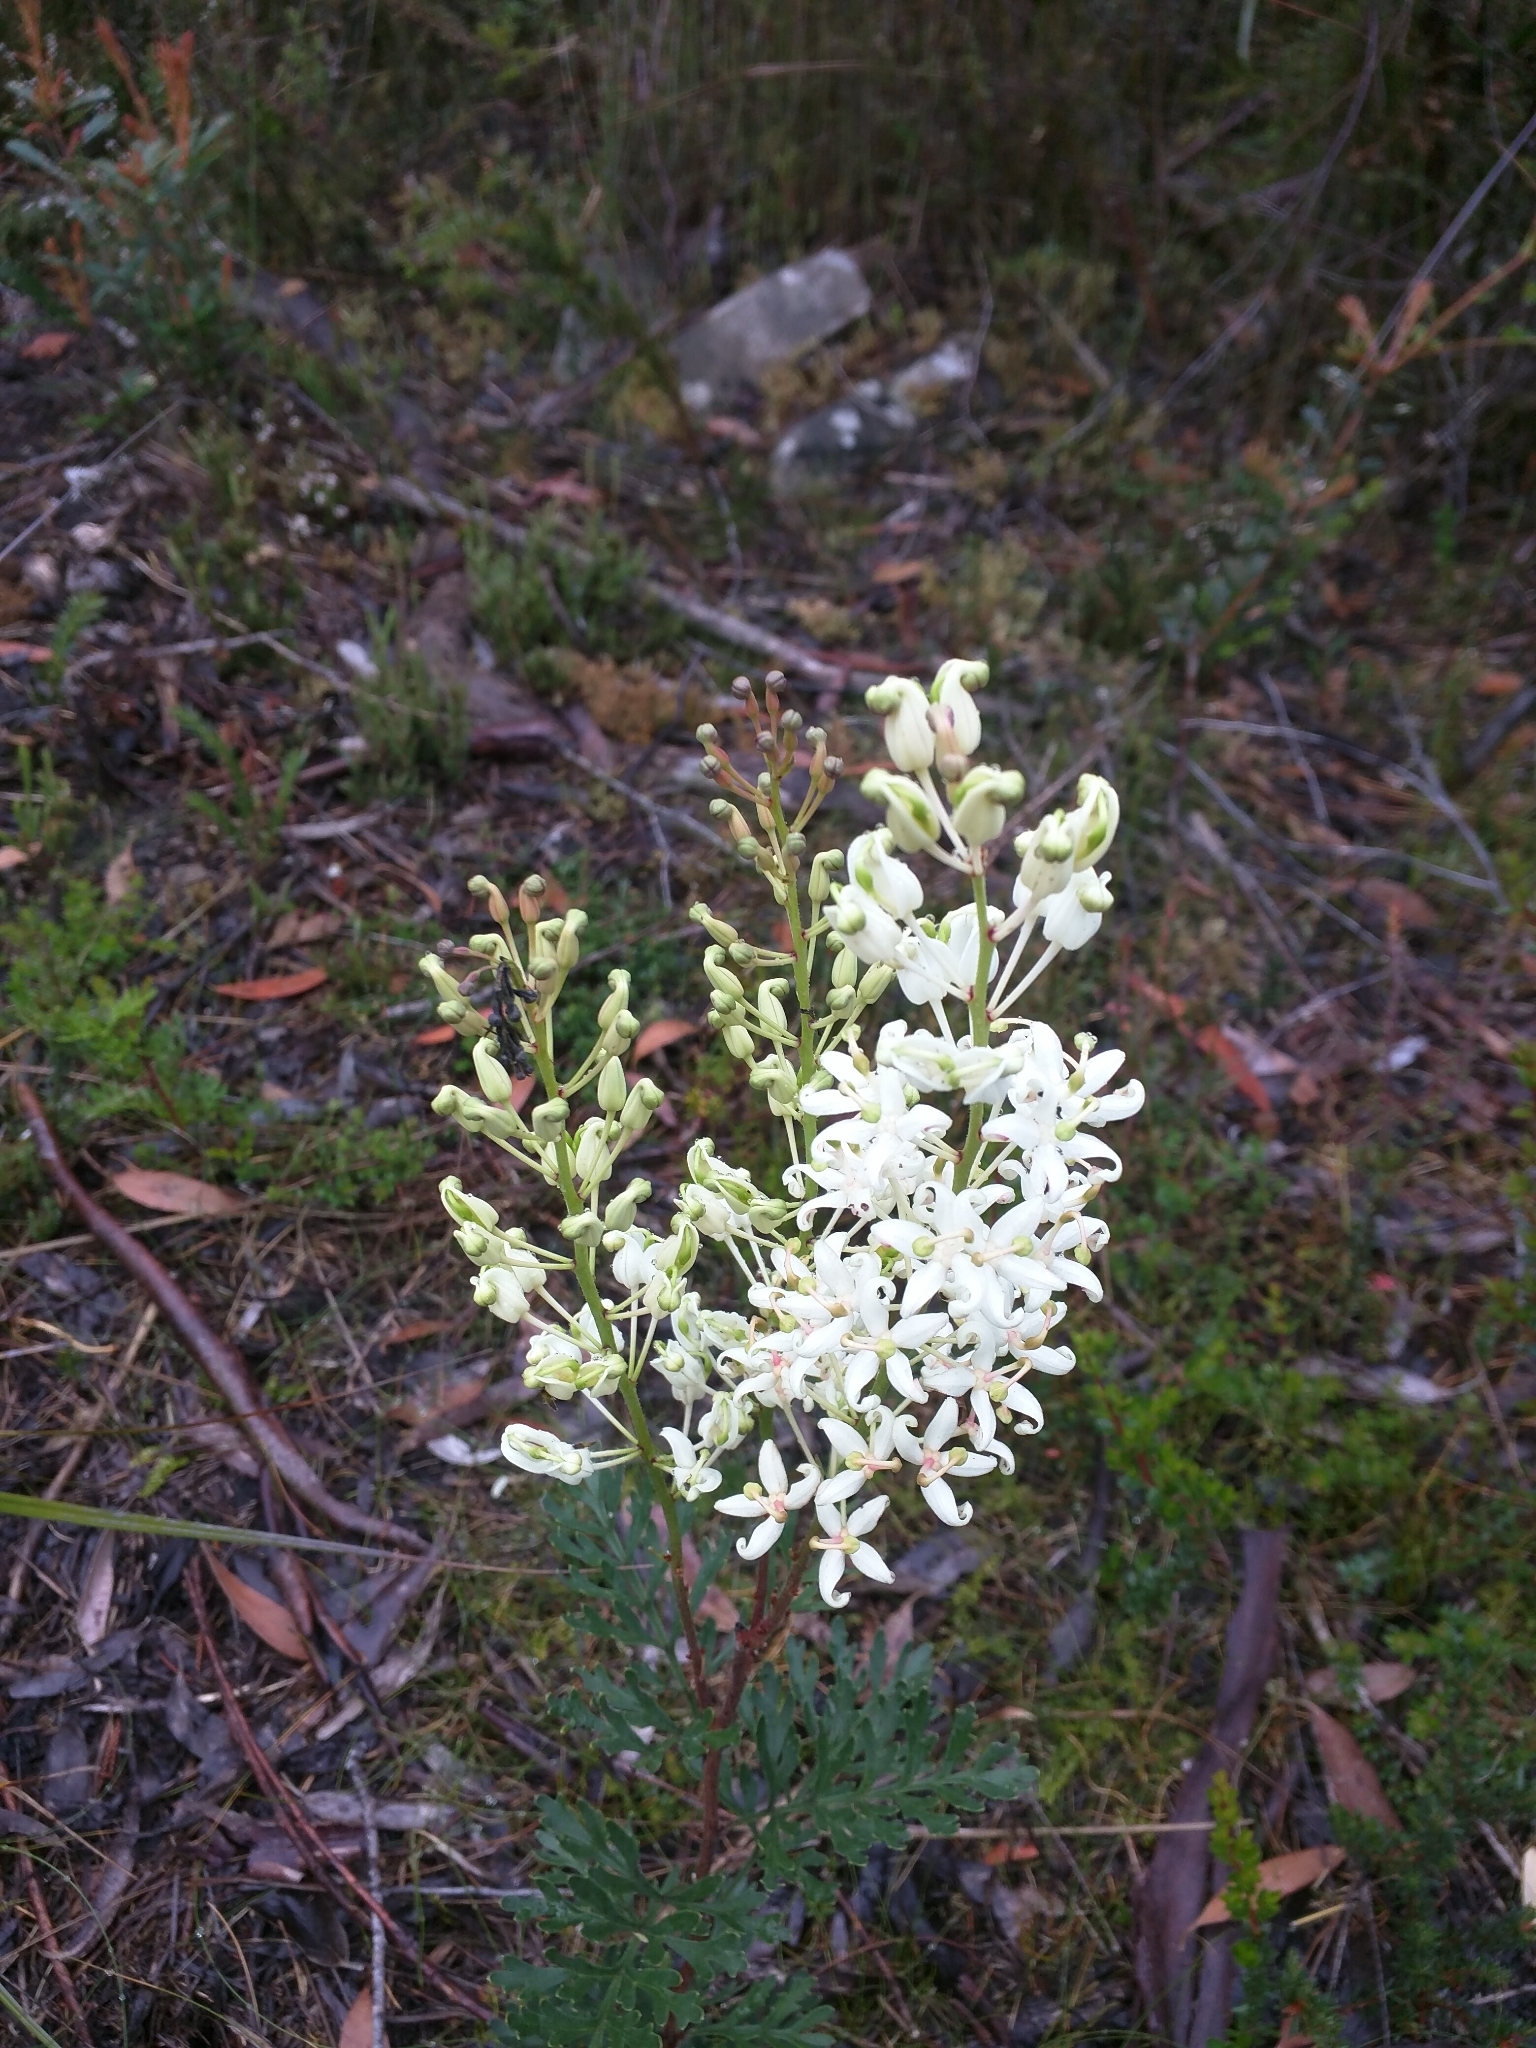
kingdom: Plantae
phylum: Tracheophyta
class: Magnoliopsida
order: Proteales
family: Proteaceae
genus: Lomatia
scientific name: Lomatia tinctoria
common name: Guitar plant
